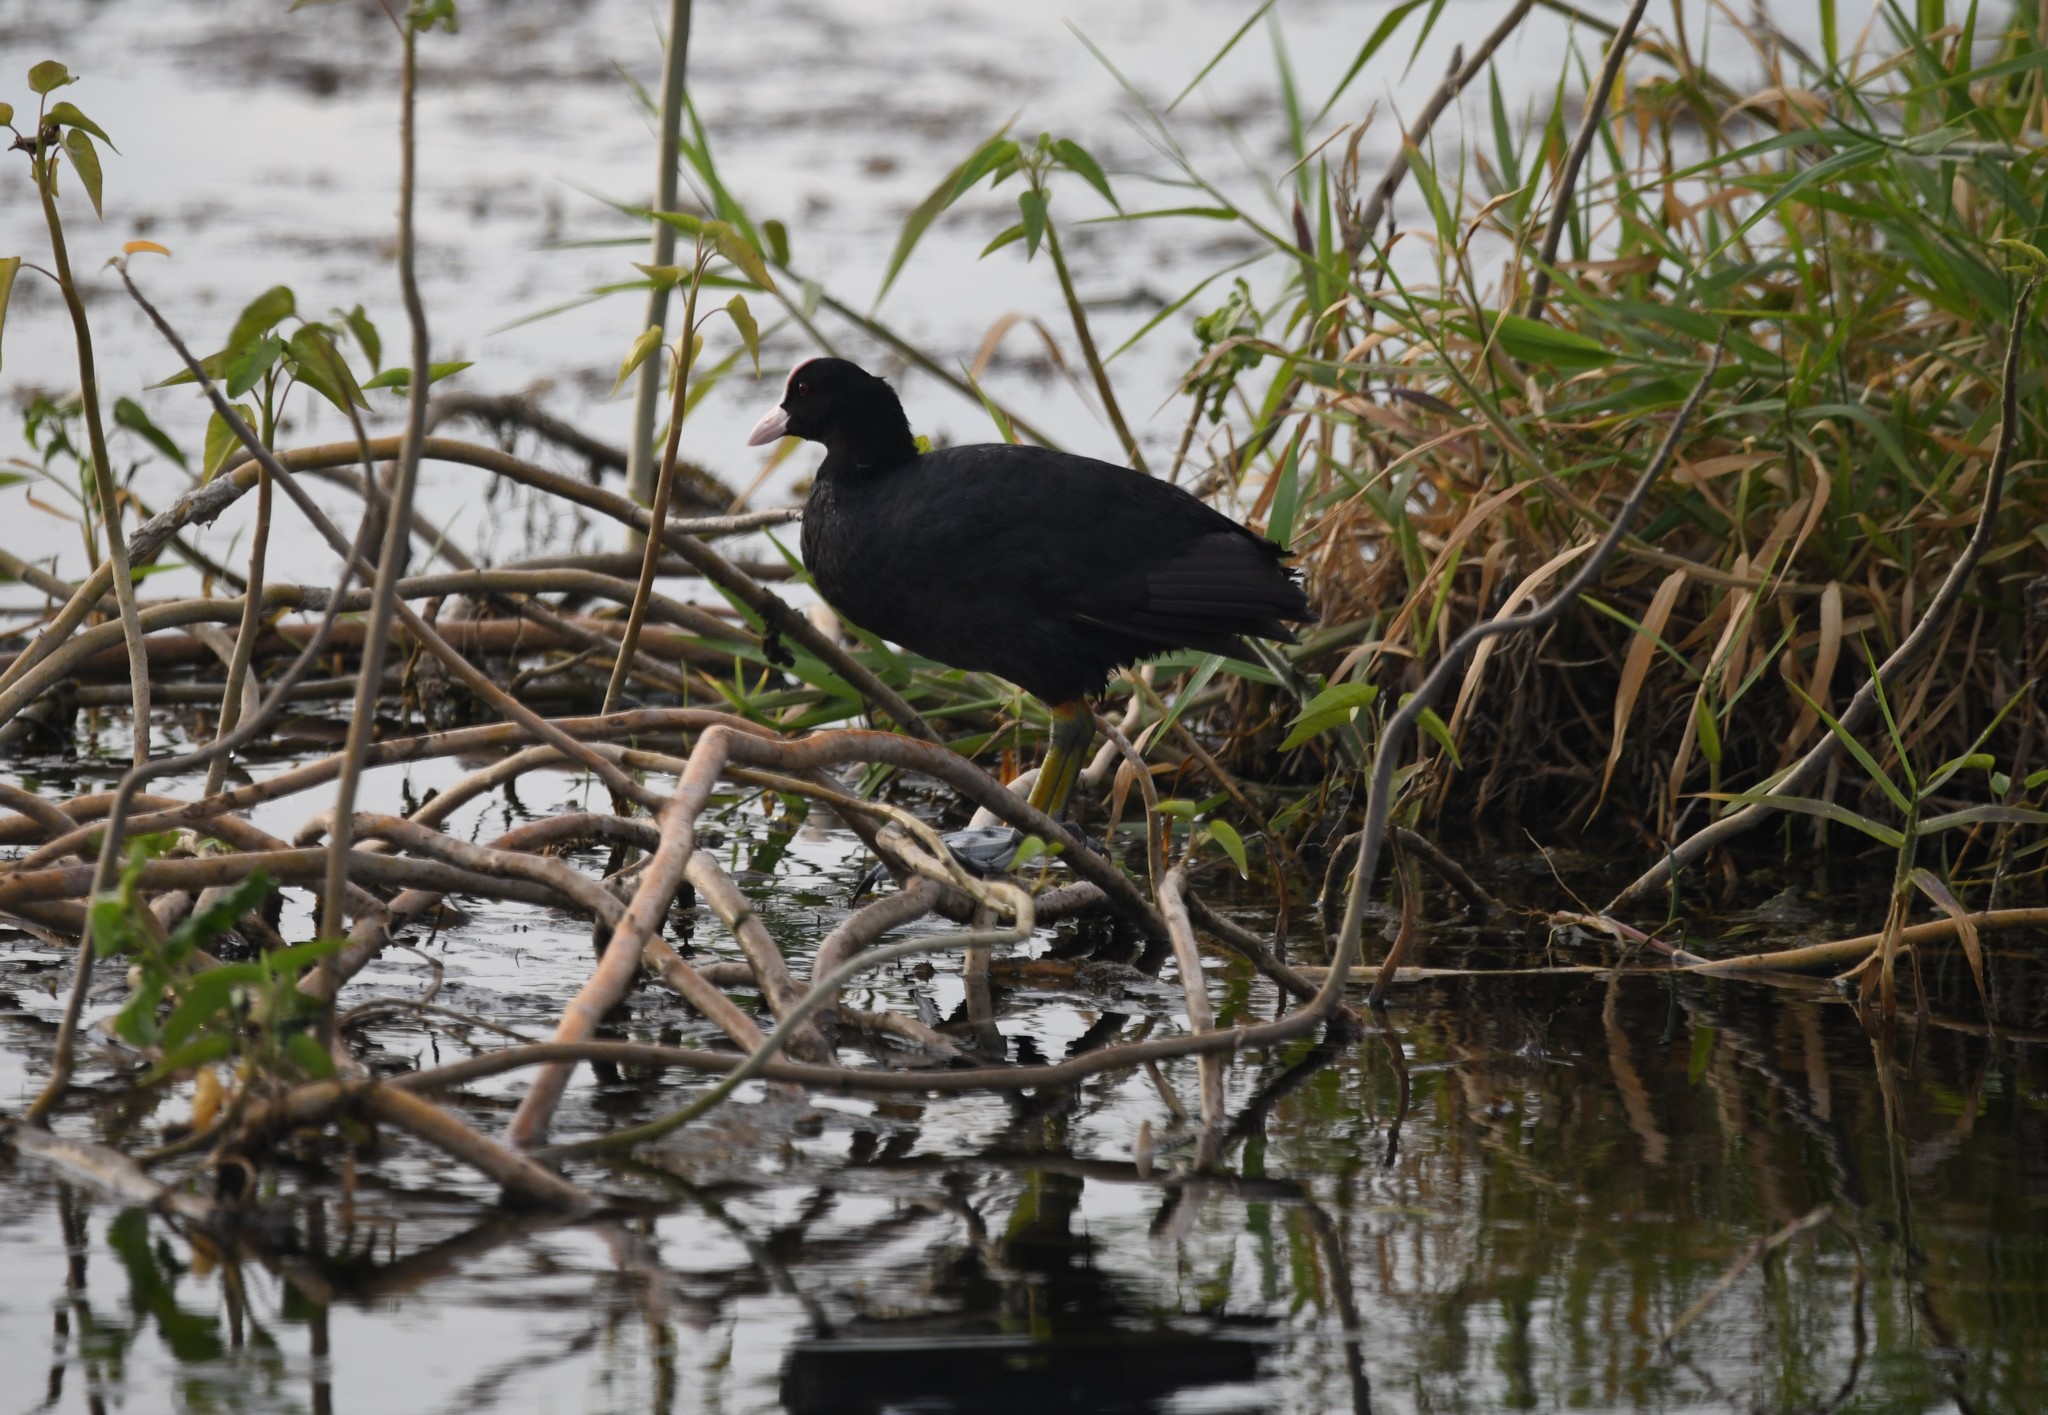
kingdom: Animalia
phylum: Chordata
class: Aves
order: Gruiformes
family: Rallidae
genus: Fulica
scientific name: Fulica atra
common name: Eurasian coot
